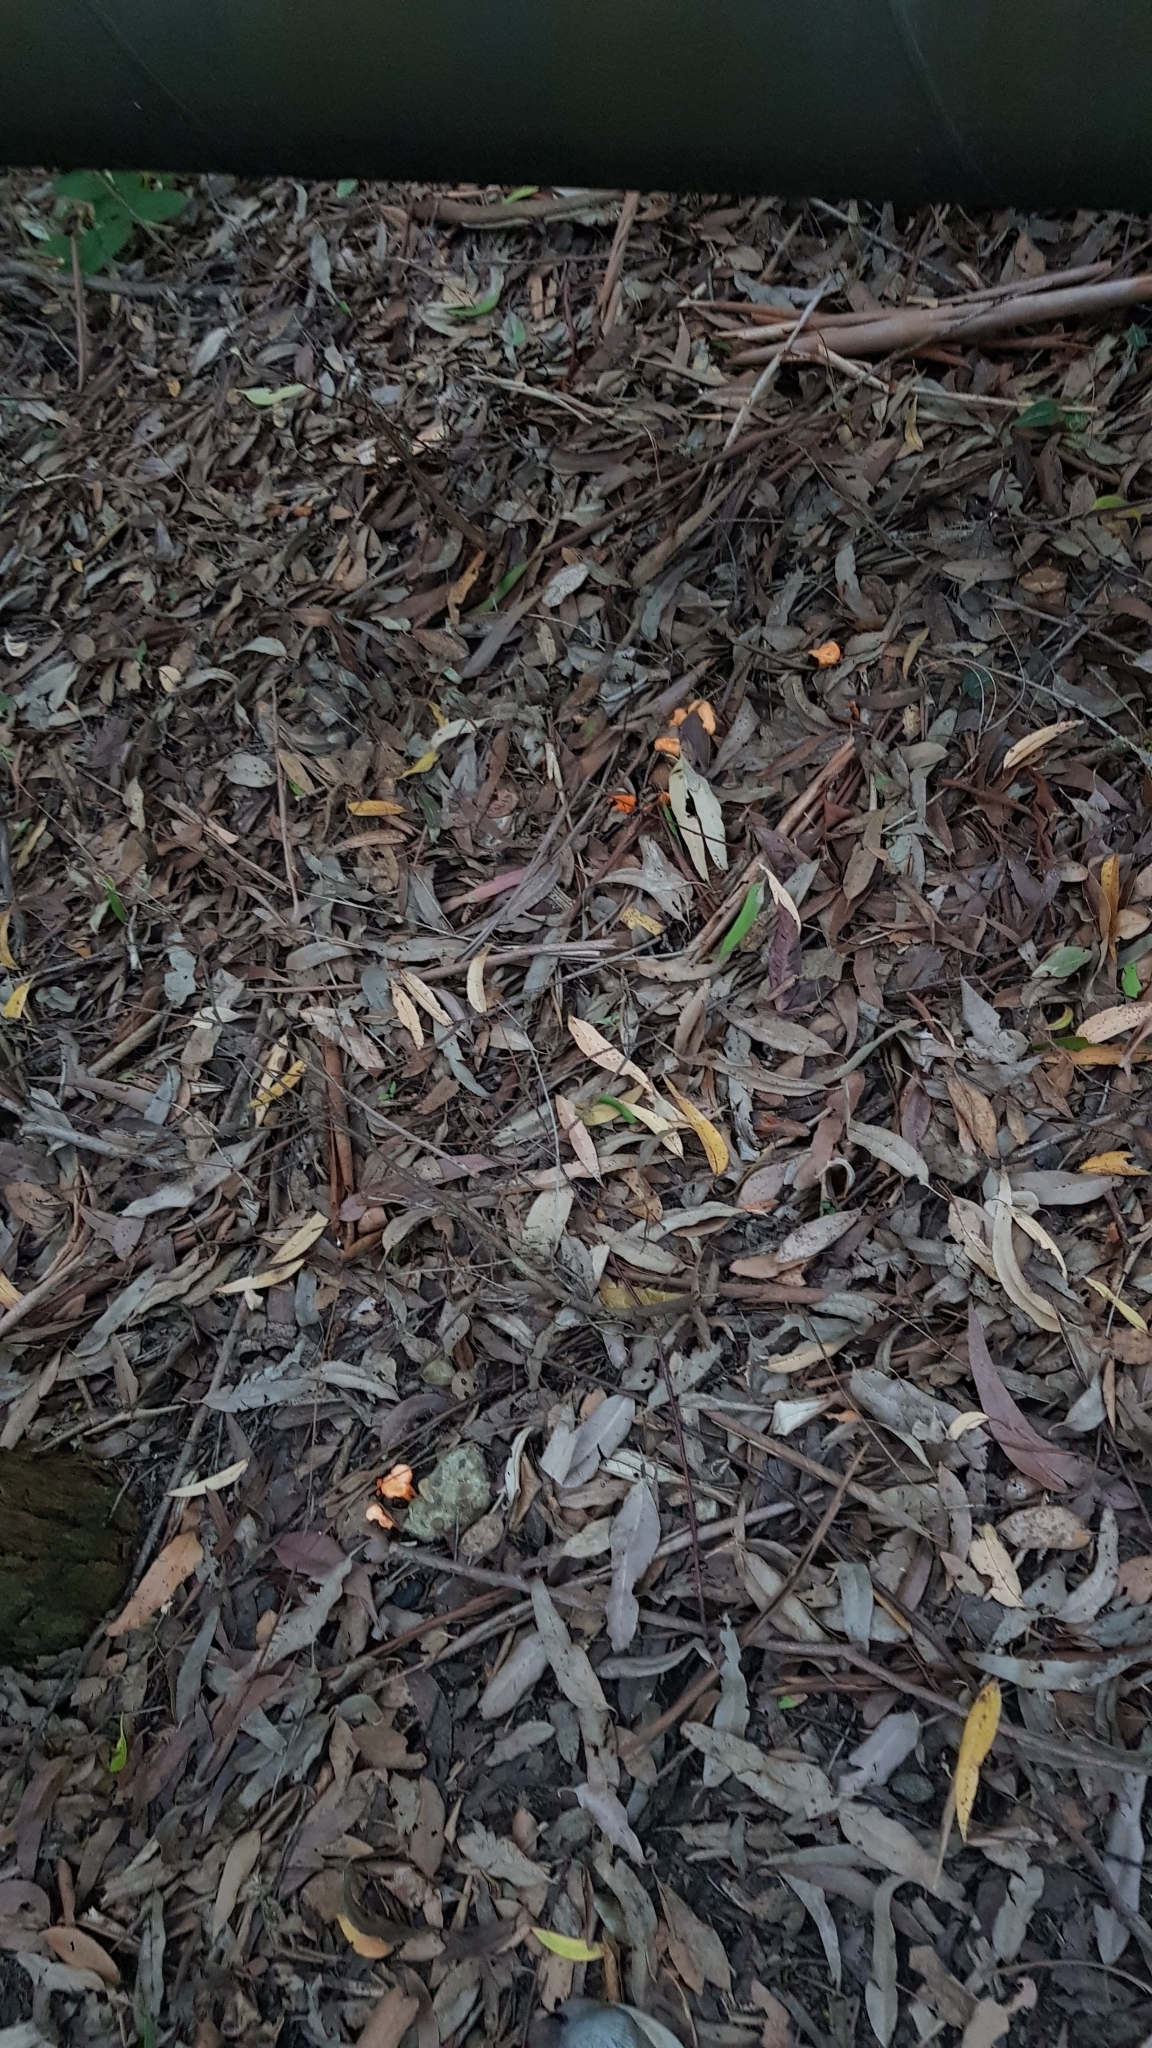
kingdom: Fungi
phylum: Basidiomycota
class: Agaricomycetes
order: Cantharellales
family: Hydnaceae
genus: Cantharellus
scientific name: Cantharellus
